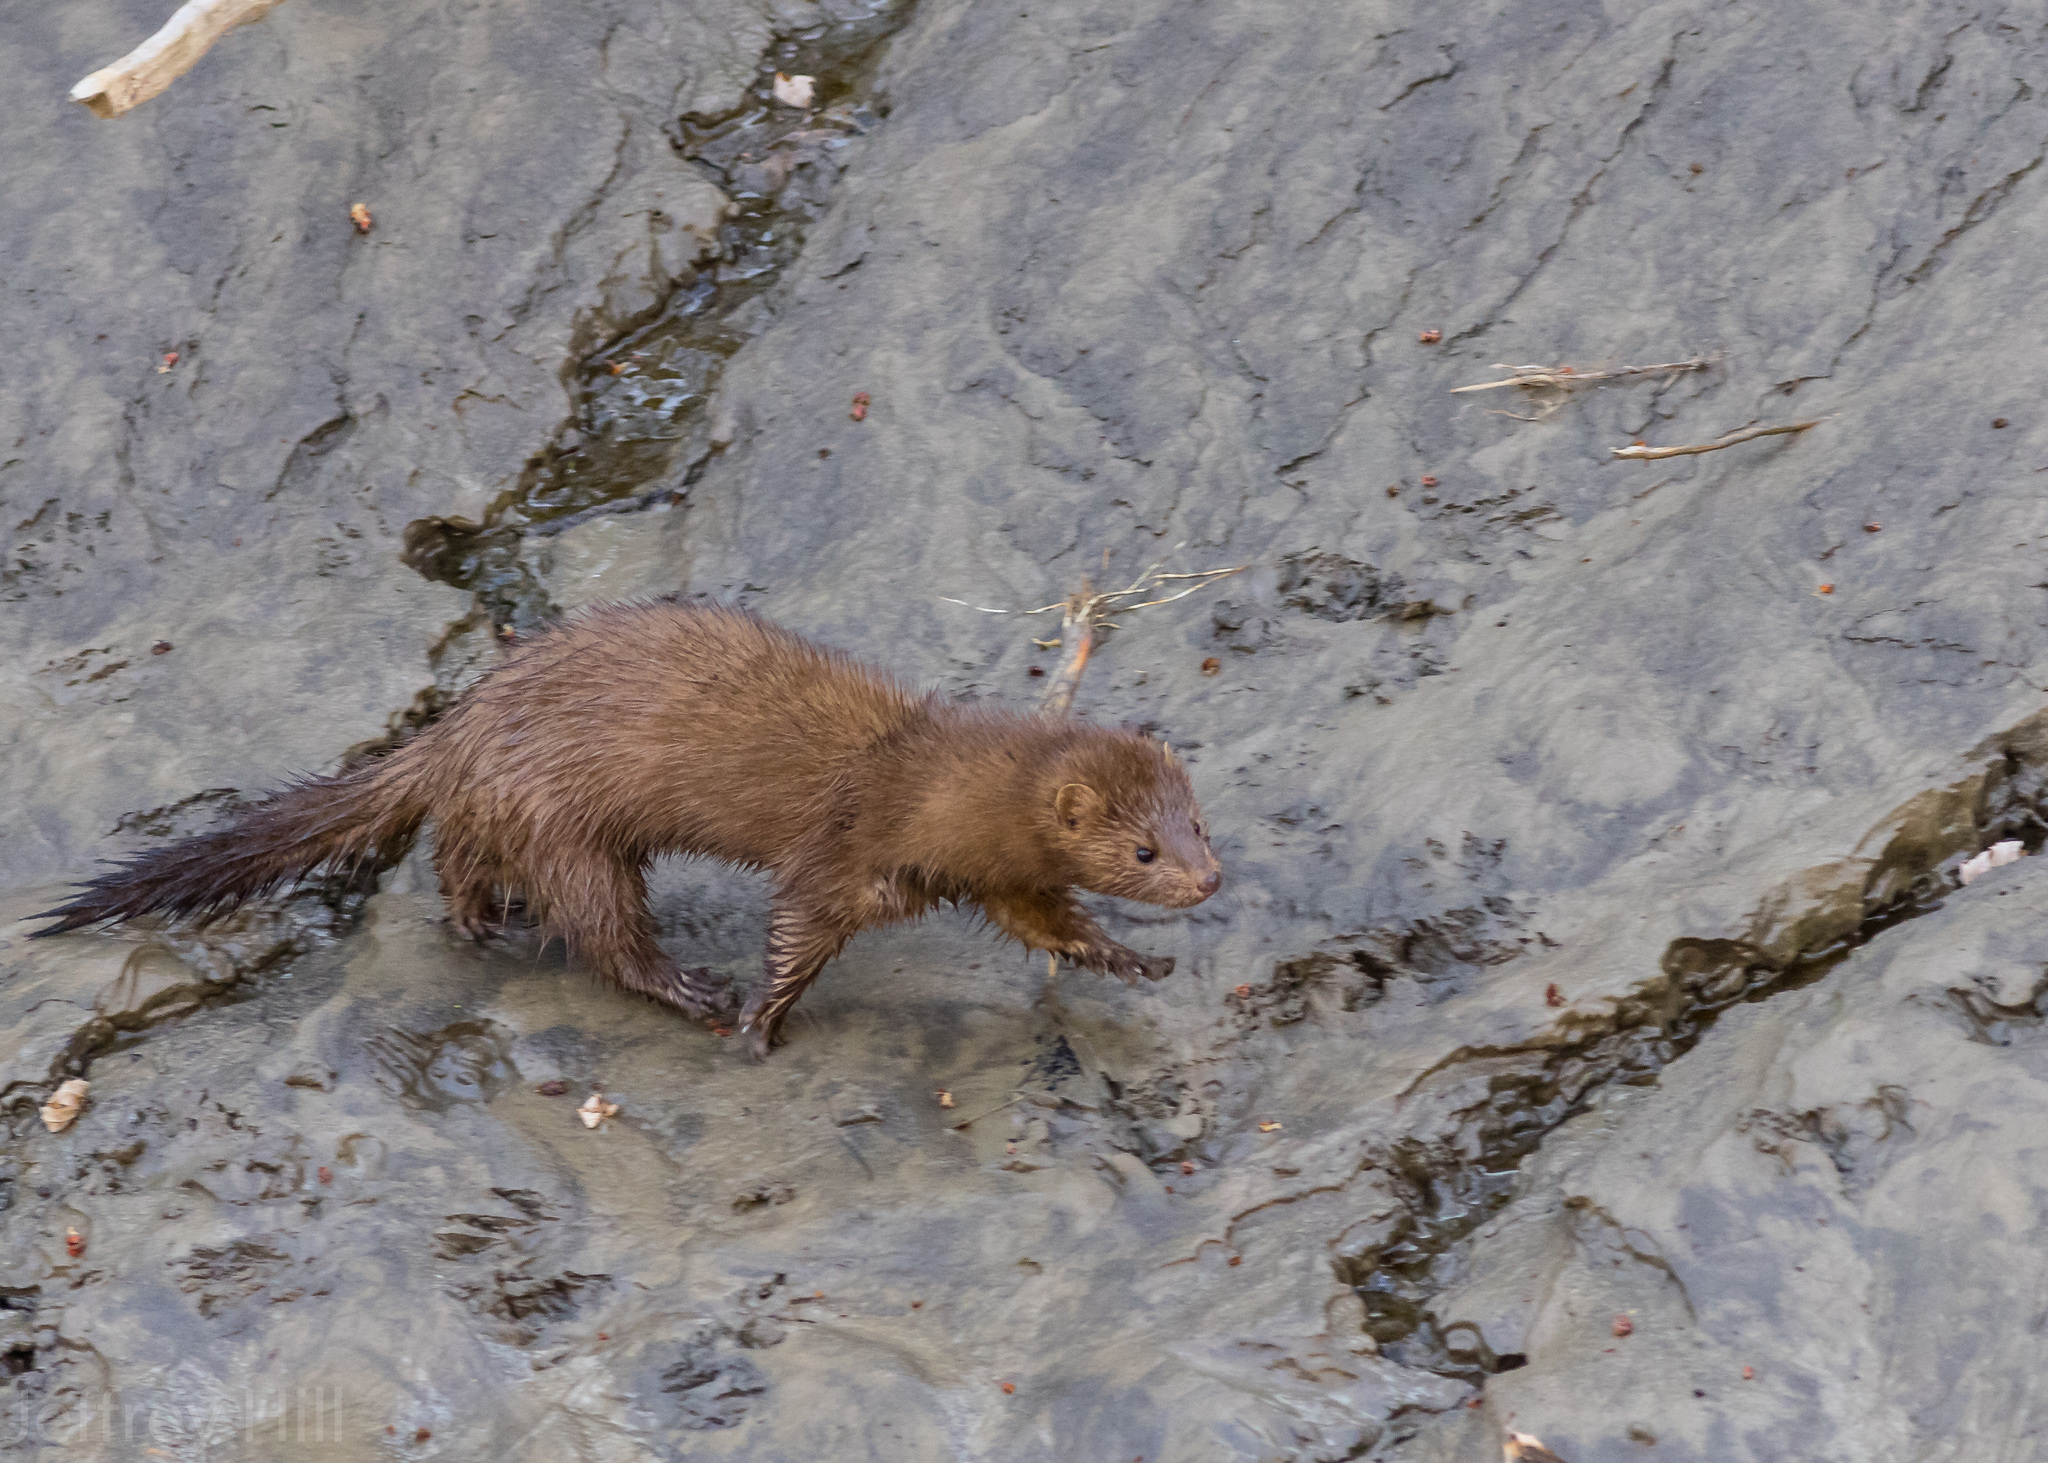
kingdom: Animalia
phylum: Chordata
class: Mammalia
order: Carnivora
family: Mustelidae
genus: Mustela
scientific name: Mustela
